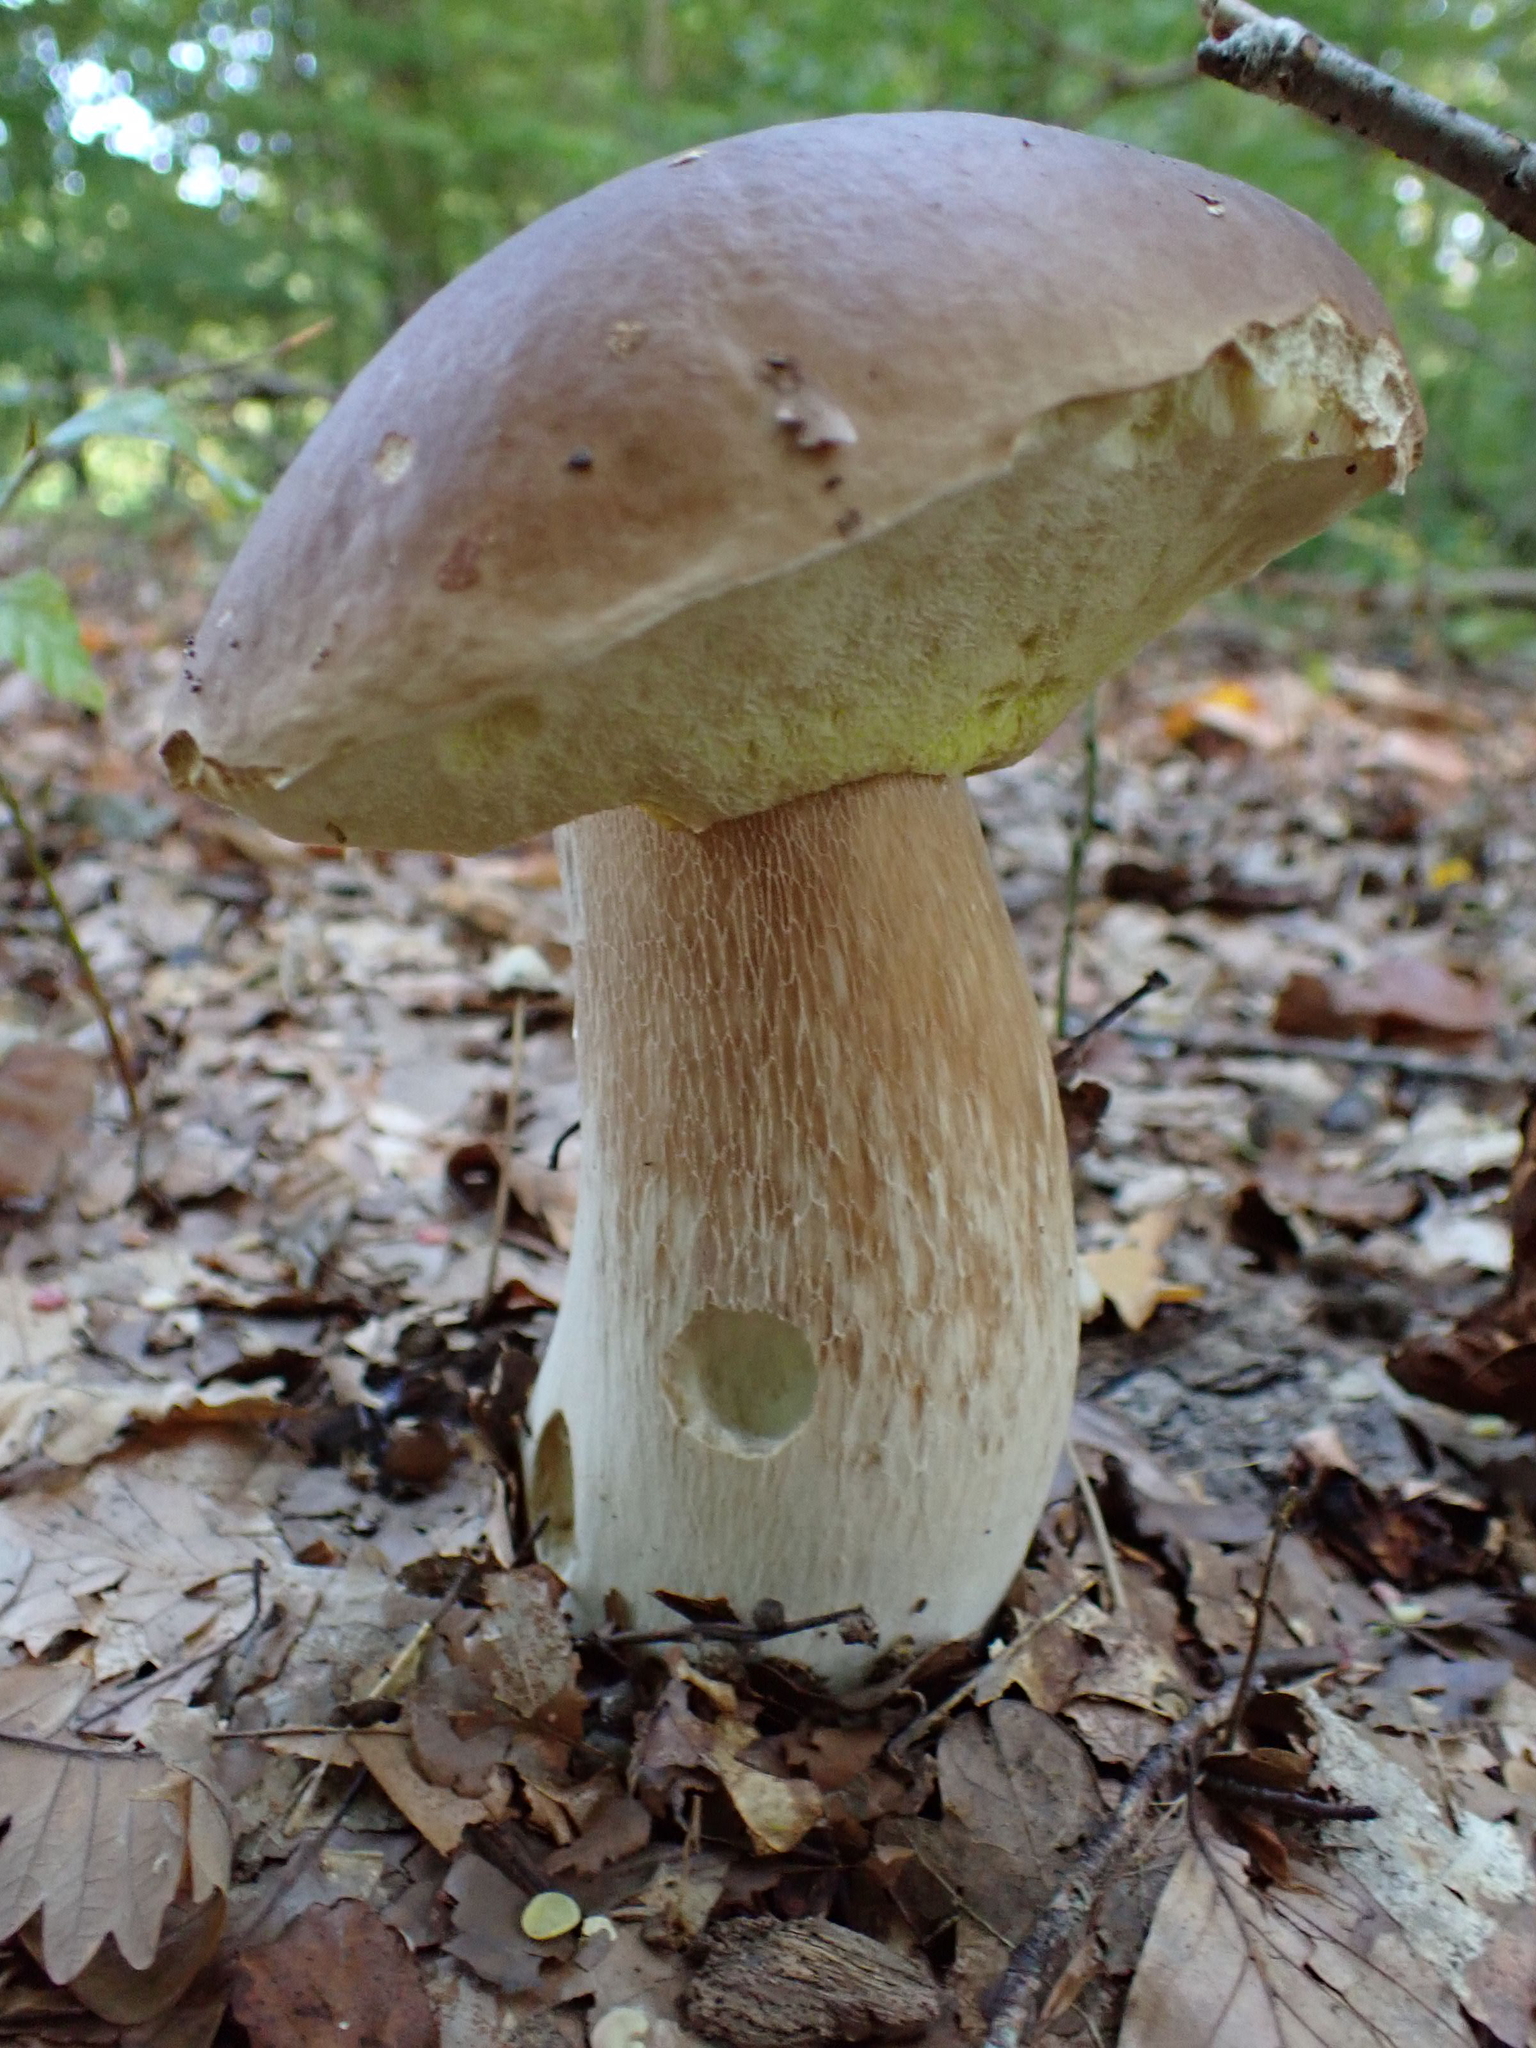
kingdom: Fungi
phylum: Basidiomycota
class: Agaricomycetes
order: Boletales
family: Boletaceae
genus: Boletus
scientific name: Boletus edulis
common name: Cep
